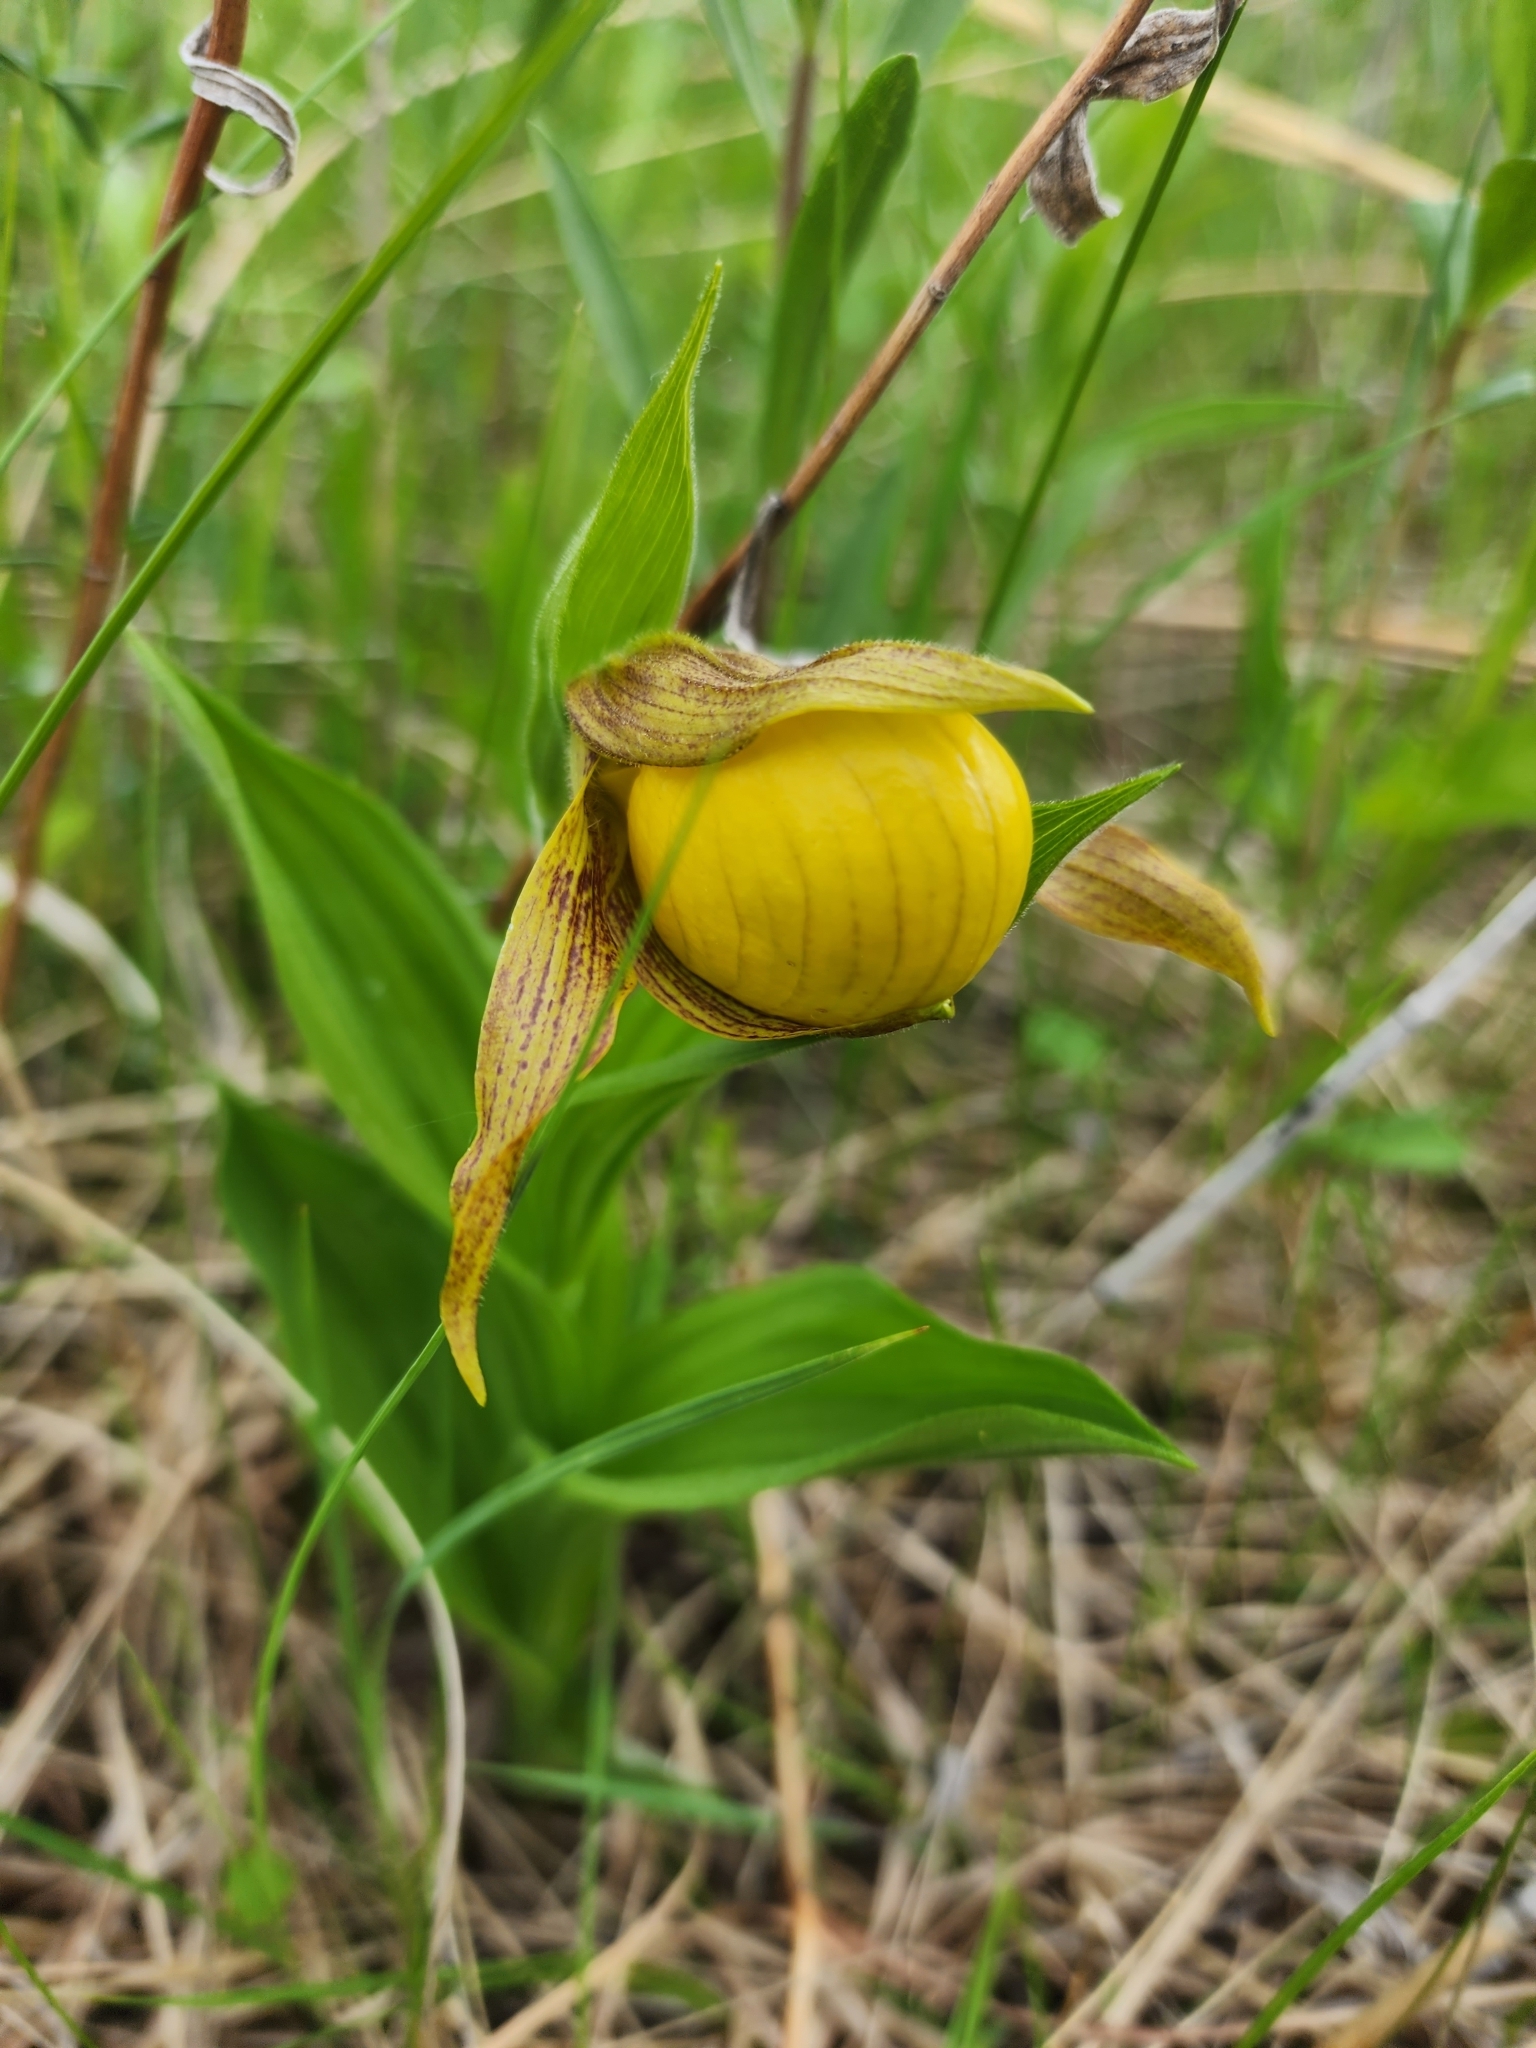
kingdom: Plantae
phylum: Tracheophyta
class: Liliopsida
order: Asparagales
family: Orchidaceae
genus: Cypripedium
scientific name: Cypripedium parviflorum
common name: American yellow lady's-slipper
